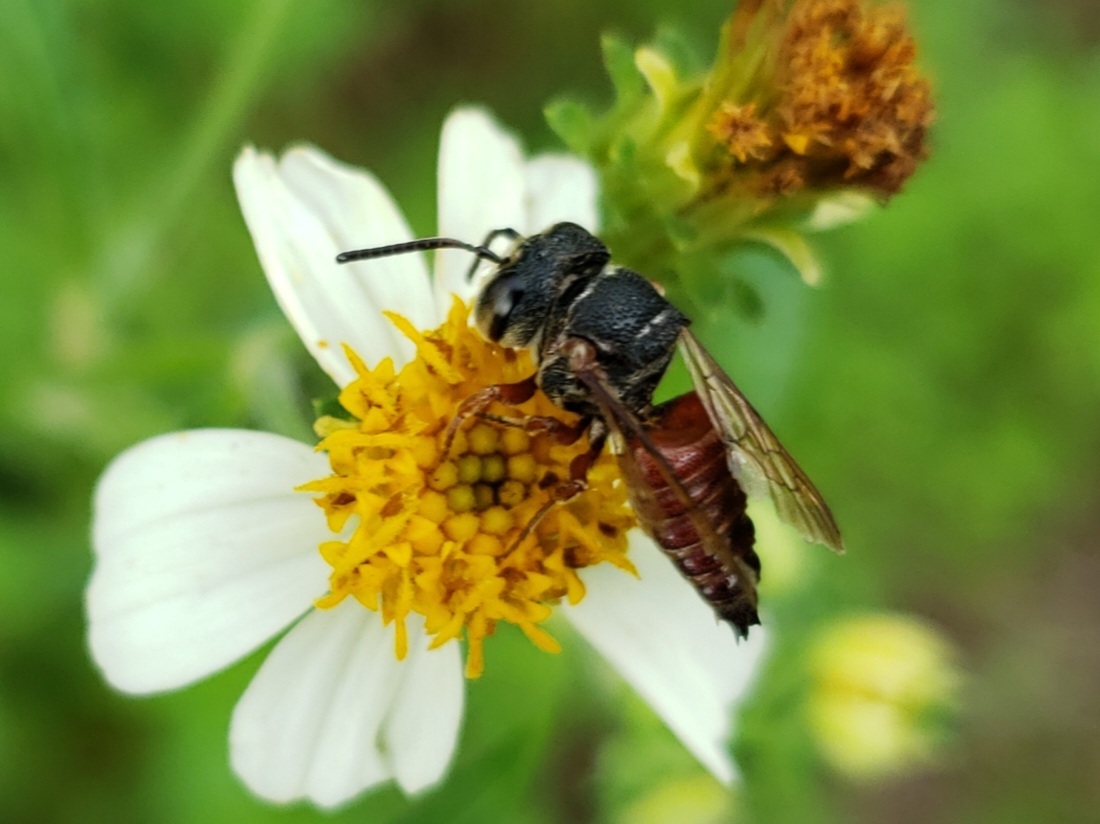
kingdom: Animalia
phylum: Arthropoda
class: Insecta
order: Hymenoptera
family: Megachilidae
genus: Coelioxys
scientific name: Coelioxys slossoni
